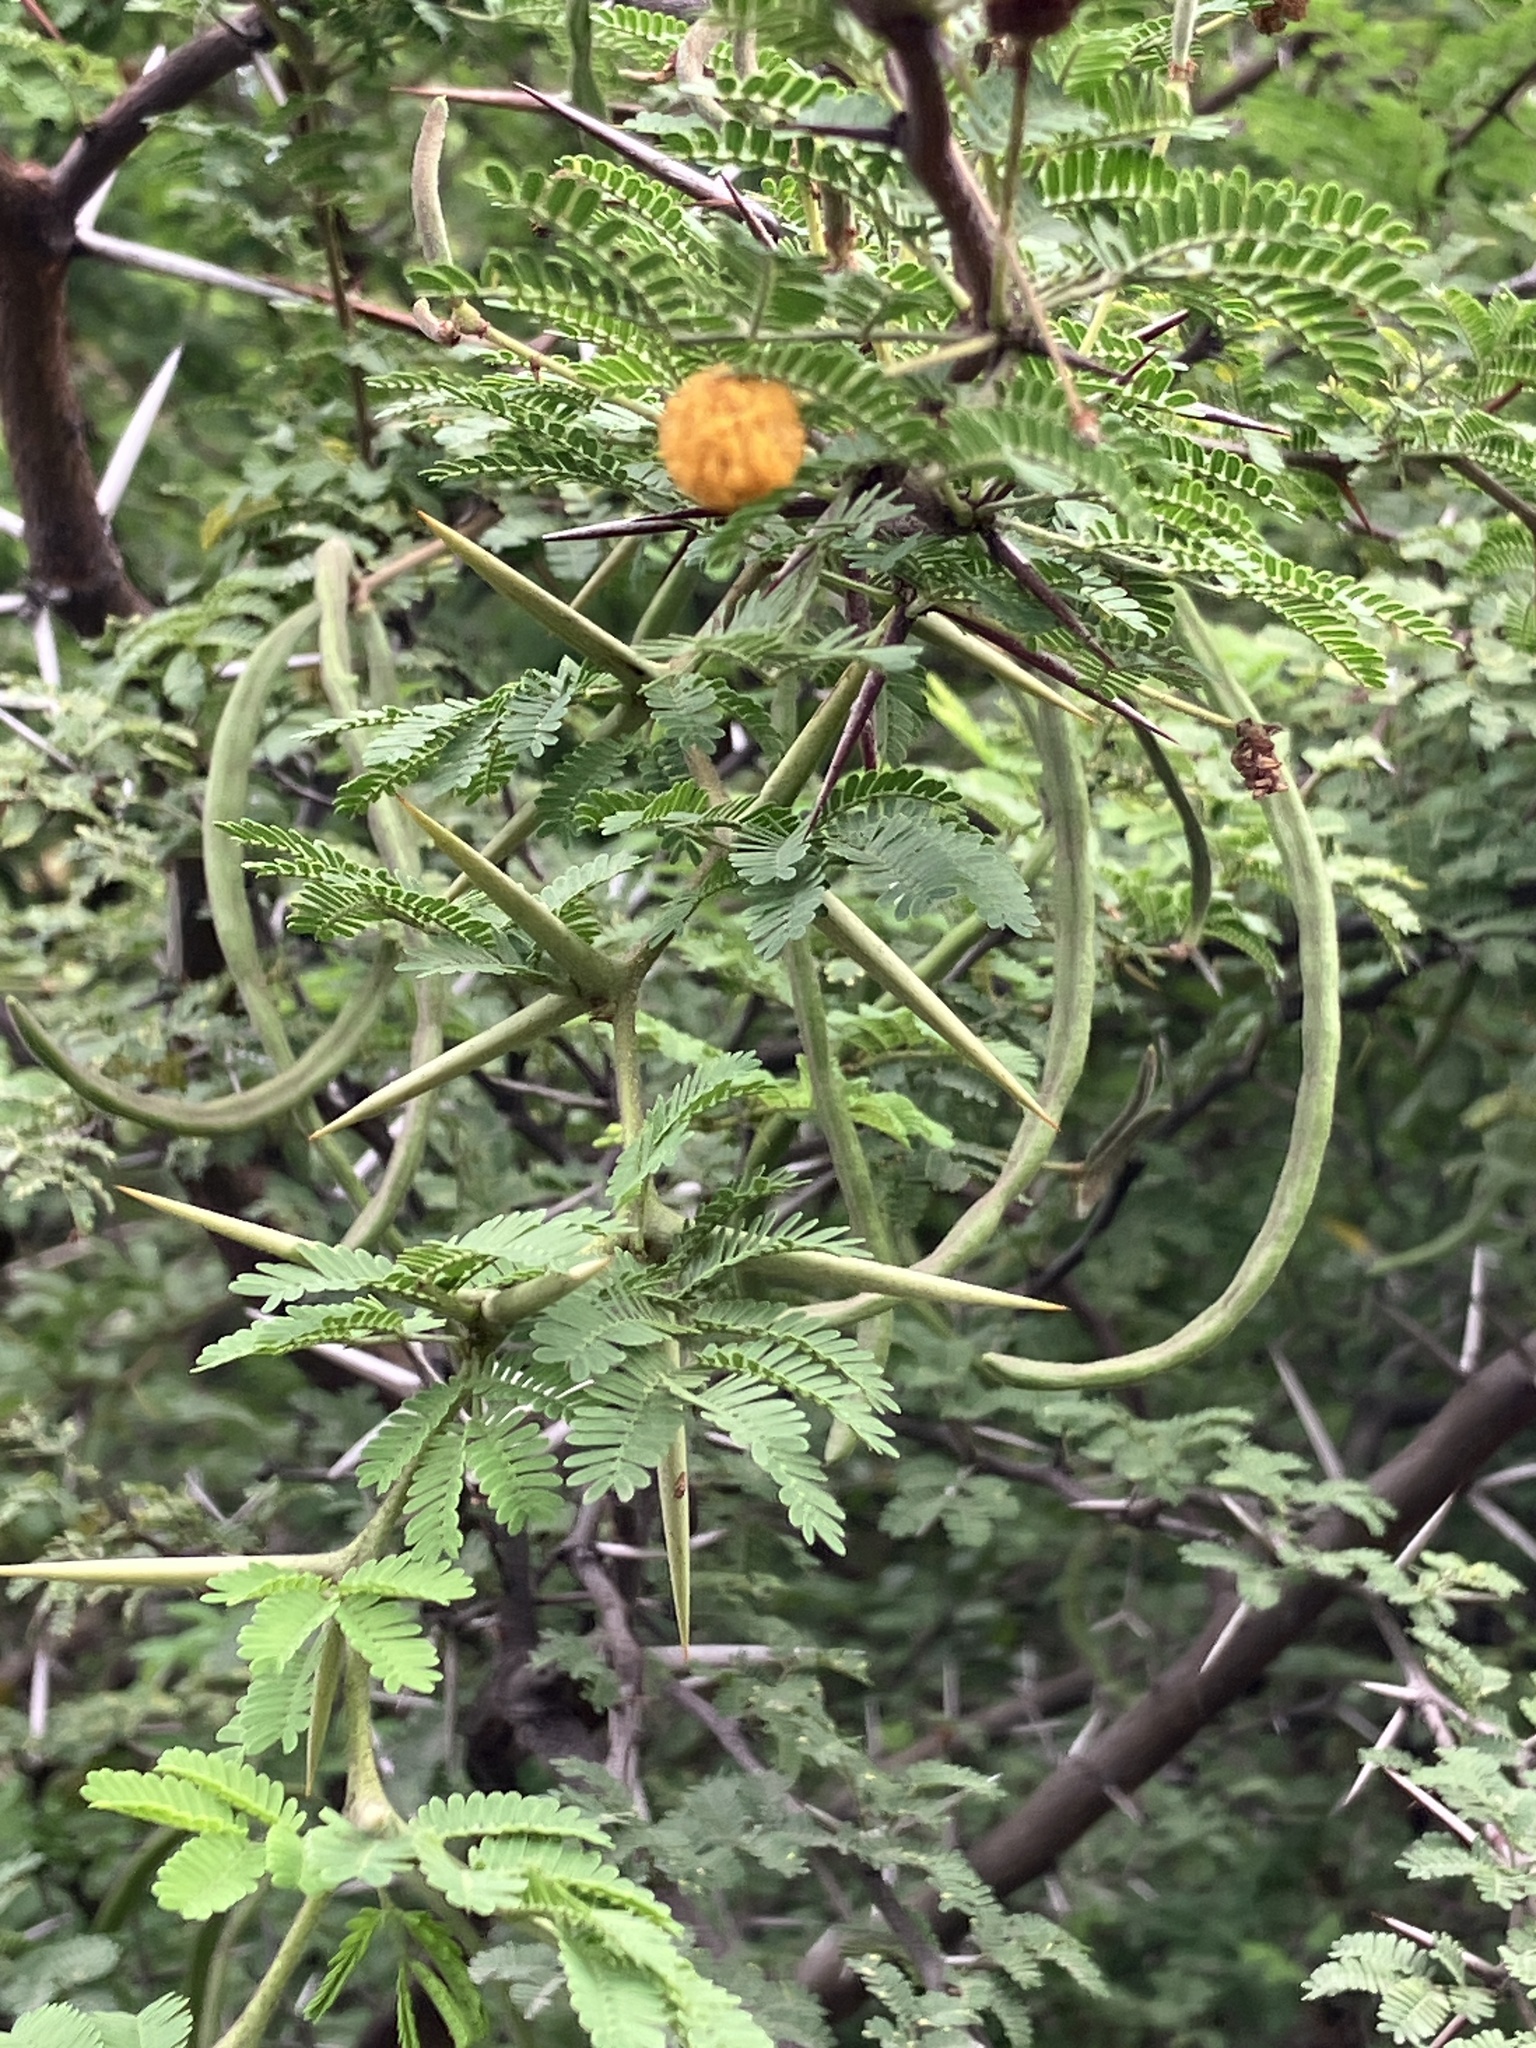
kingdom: Plantae
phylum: Tracheophyta
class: Magnoliopsida
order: Fabales
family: Fabaceae
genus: Vachellia
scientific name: Vachellia tortuosa
